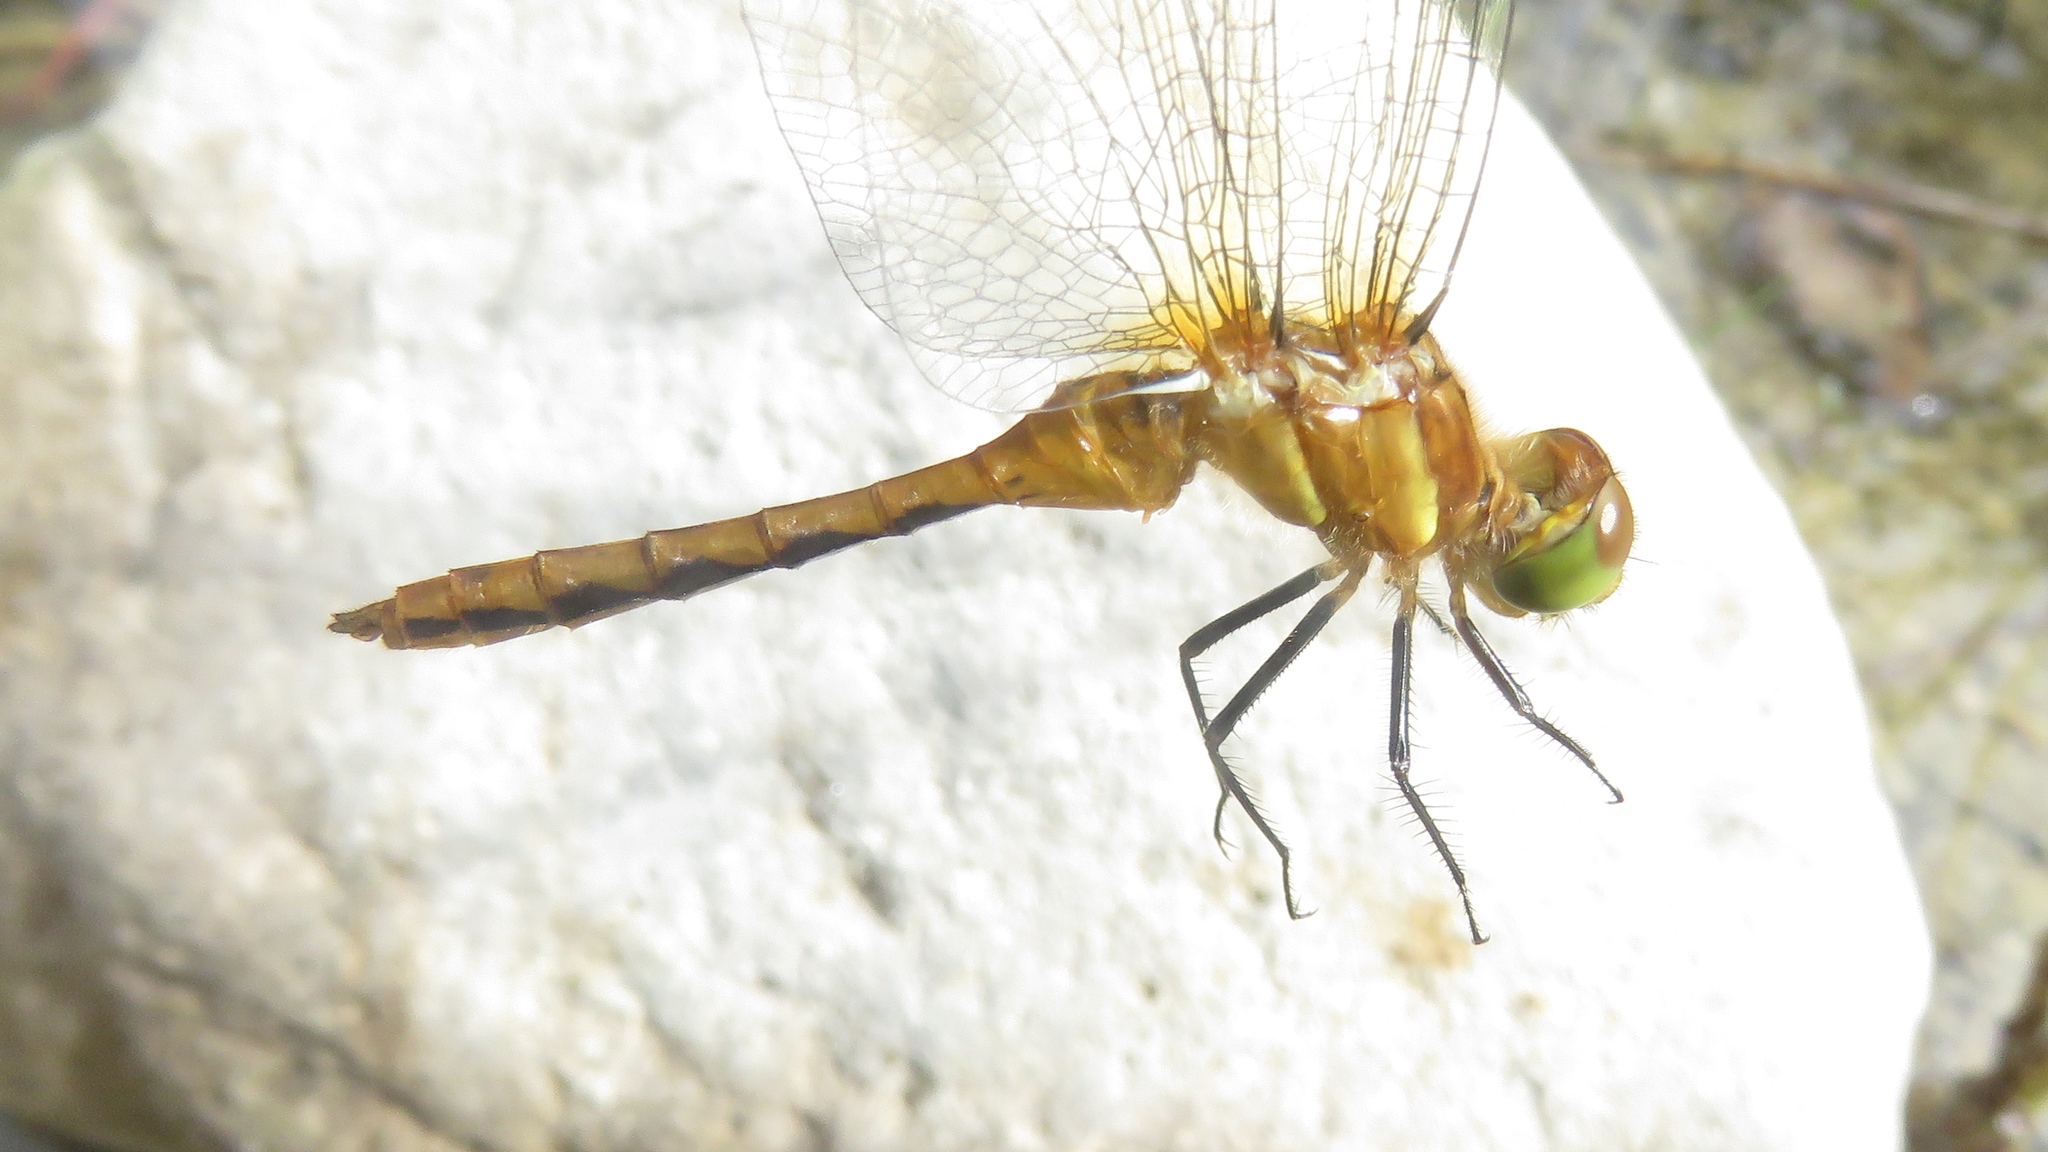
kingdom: Animalia
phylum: Arthropoda
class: Insecta
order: Odonata
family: Libellulidae
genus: Sympetrum
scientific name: Sympetrum
